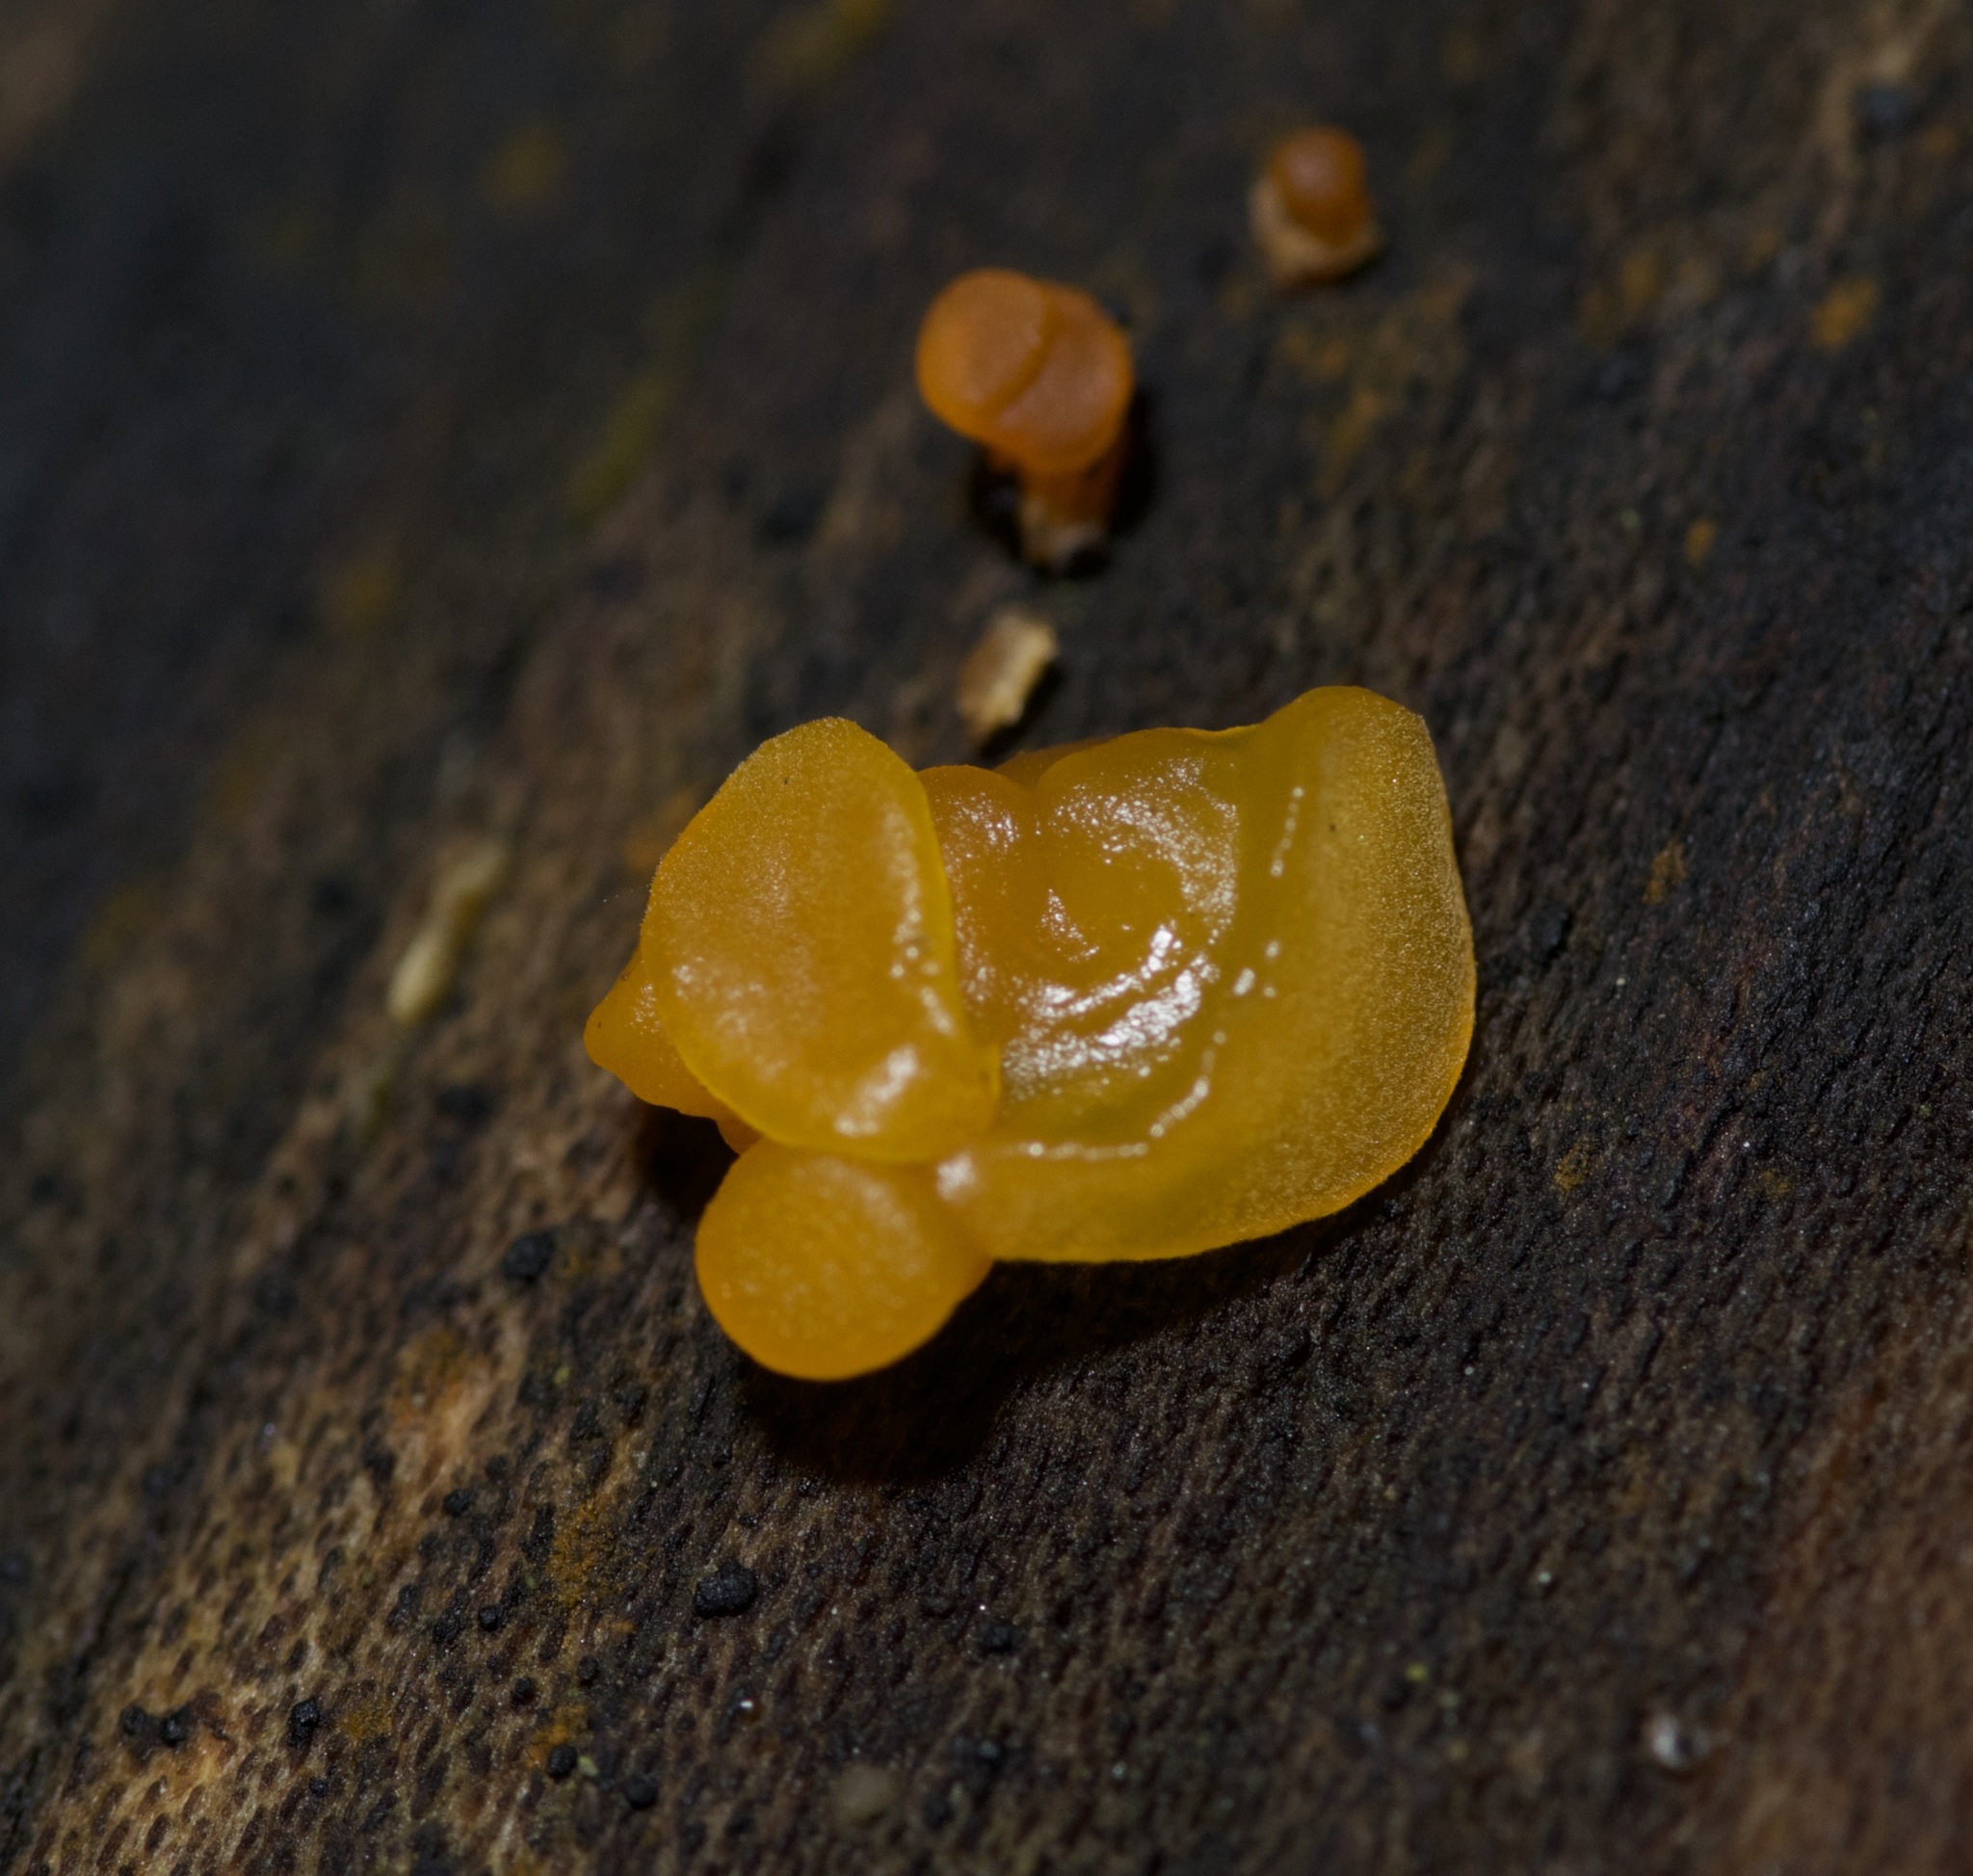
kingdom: Fungi
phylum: Basidiomycota
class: Dacrymycetes
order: Dacrymycetales
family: Dacrymycetaceae
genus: Dacrymyces
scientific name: Dacrymyces chrysospermus
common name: Orange jelly spot
